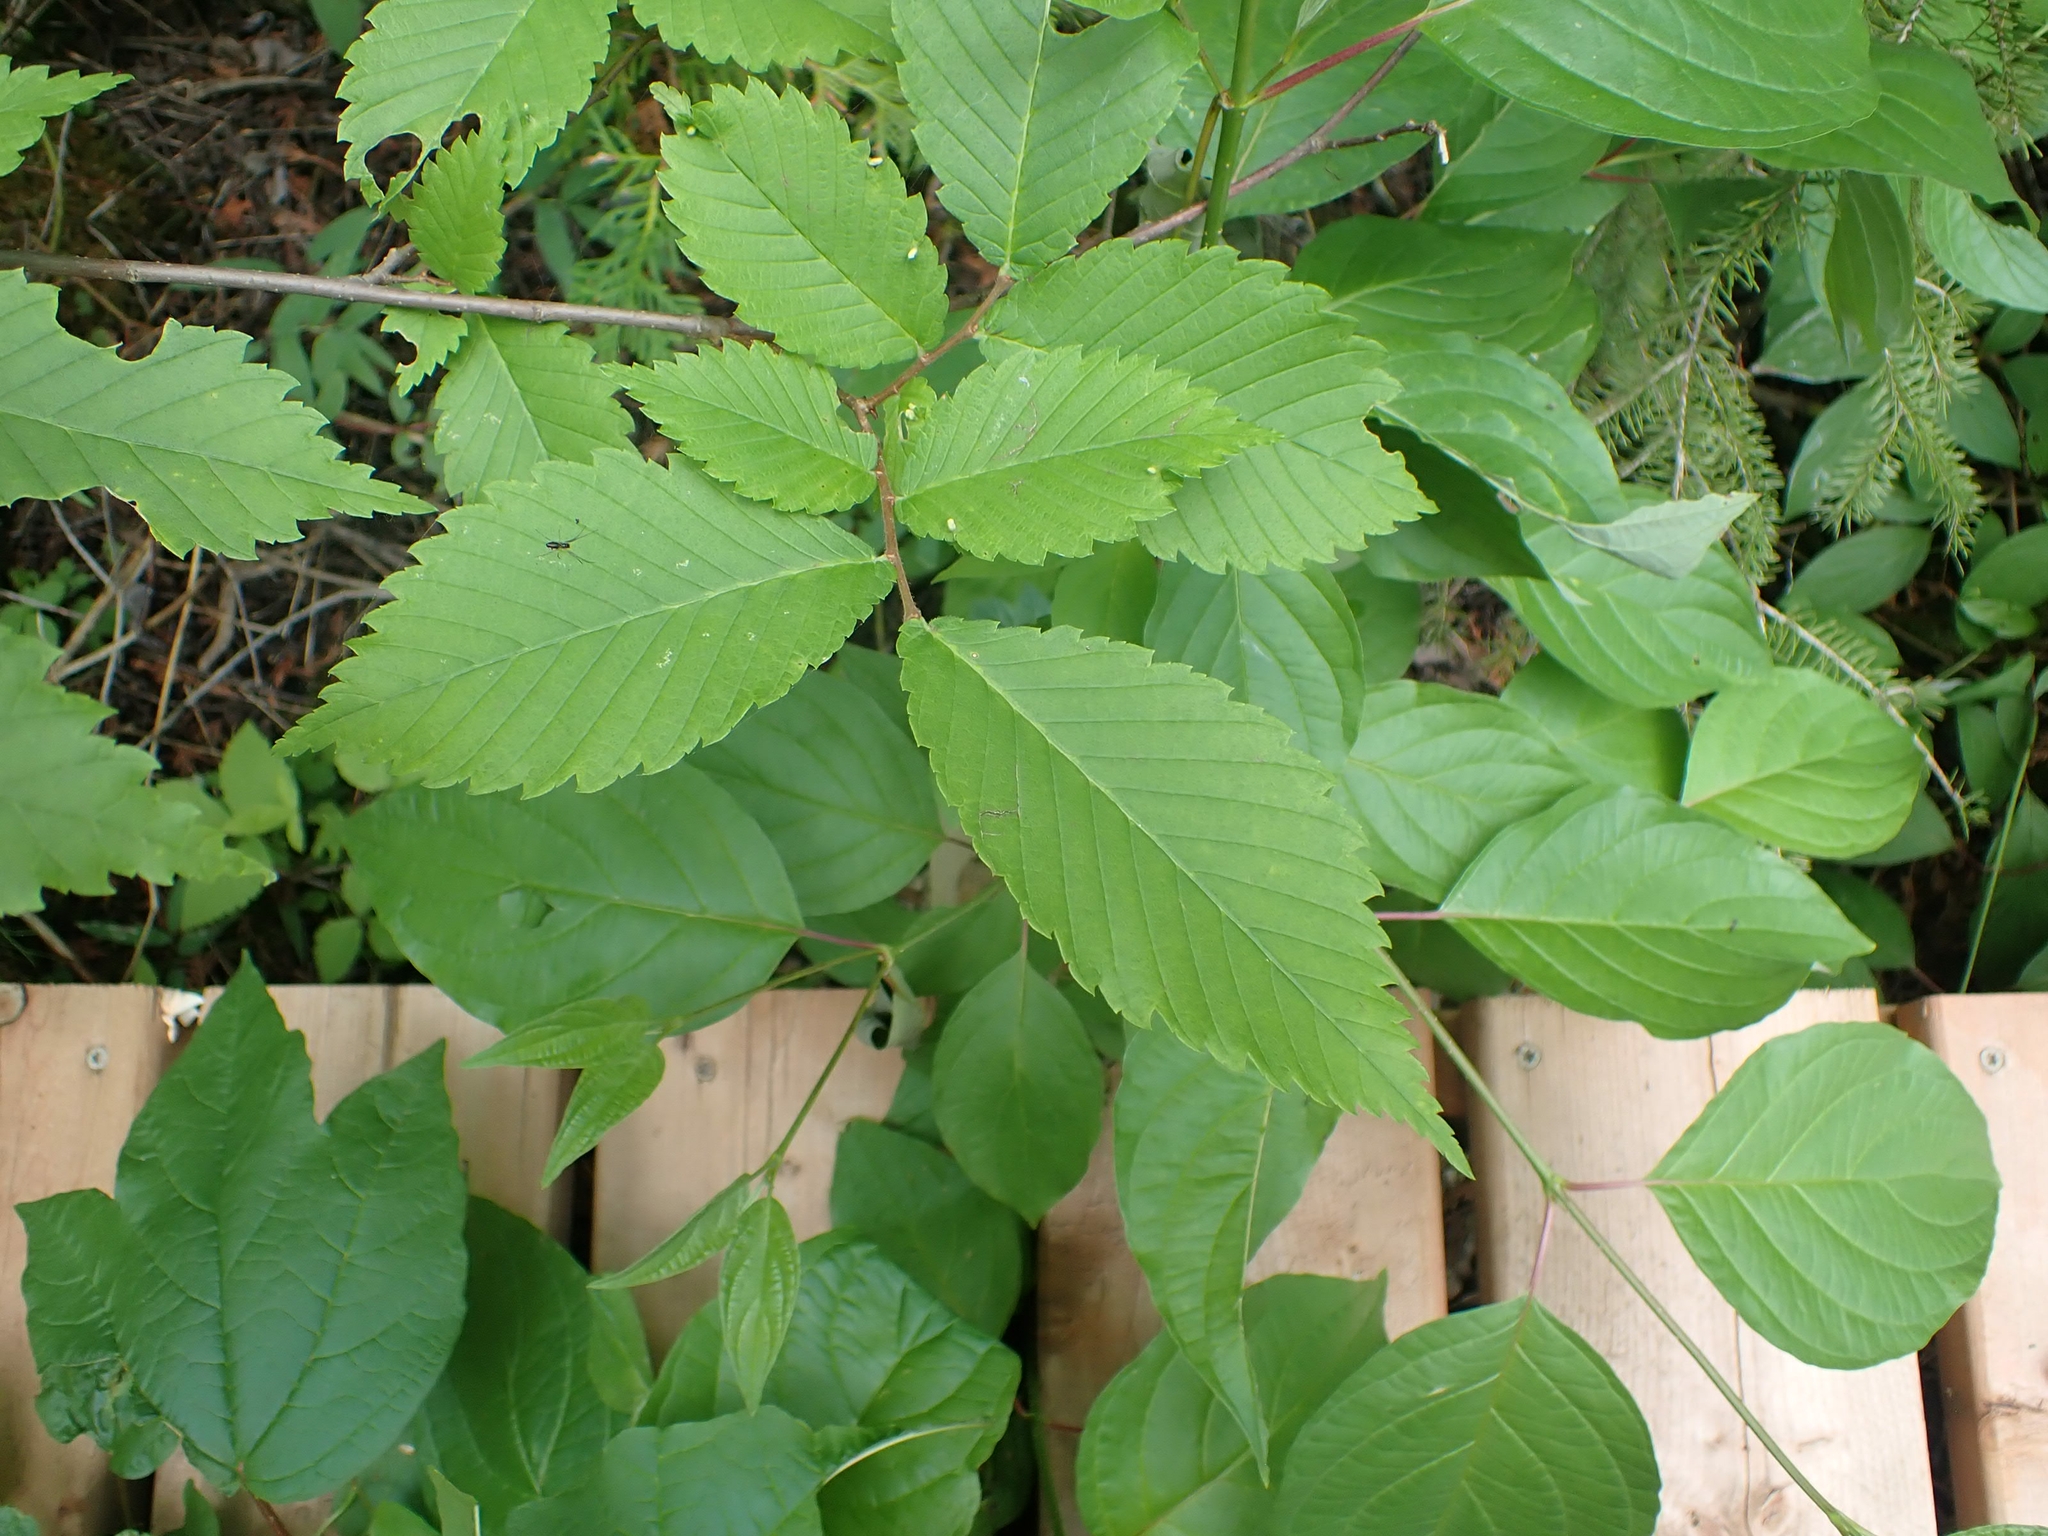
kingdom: Plantae
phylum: Tracheophyta
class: Magnoliopsida
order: Rosales
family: Ulmaceae
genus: Ulmus
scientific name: Ulmus americana
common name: American elm
